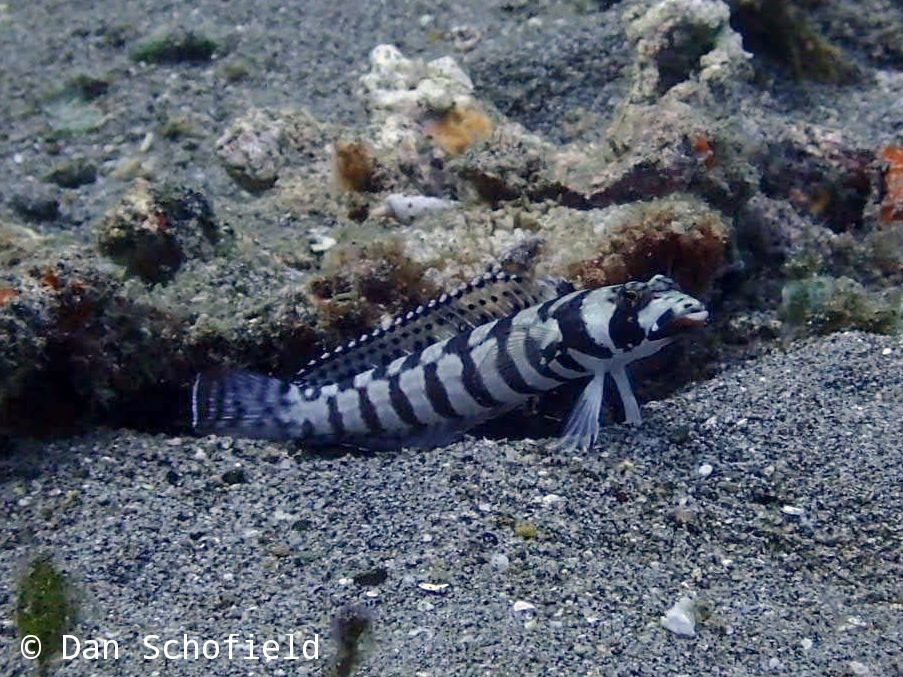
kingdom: Animalia
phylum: Chordata
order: Perciformes
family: Pinguipedidae
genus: Parapercis
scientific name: Parapercis tetracantha
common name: Black-banded grubfish
